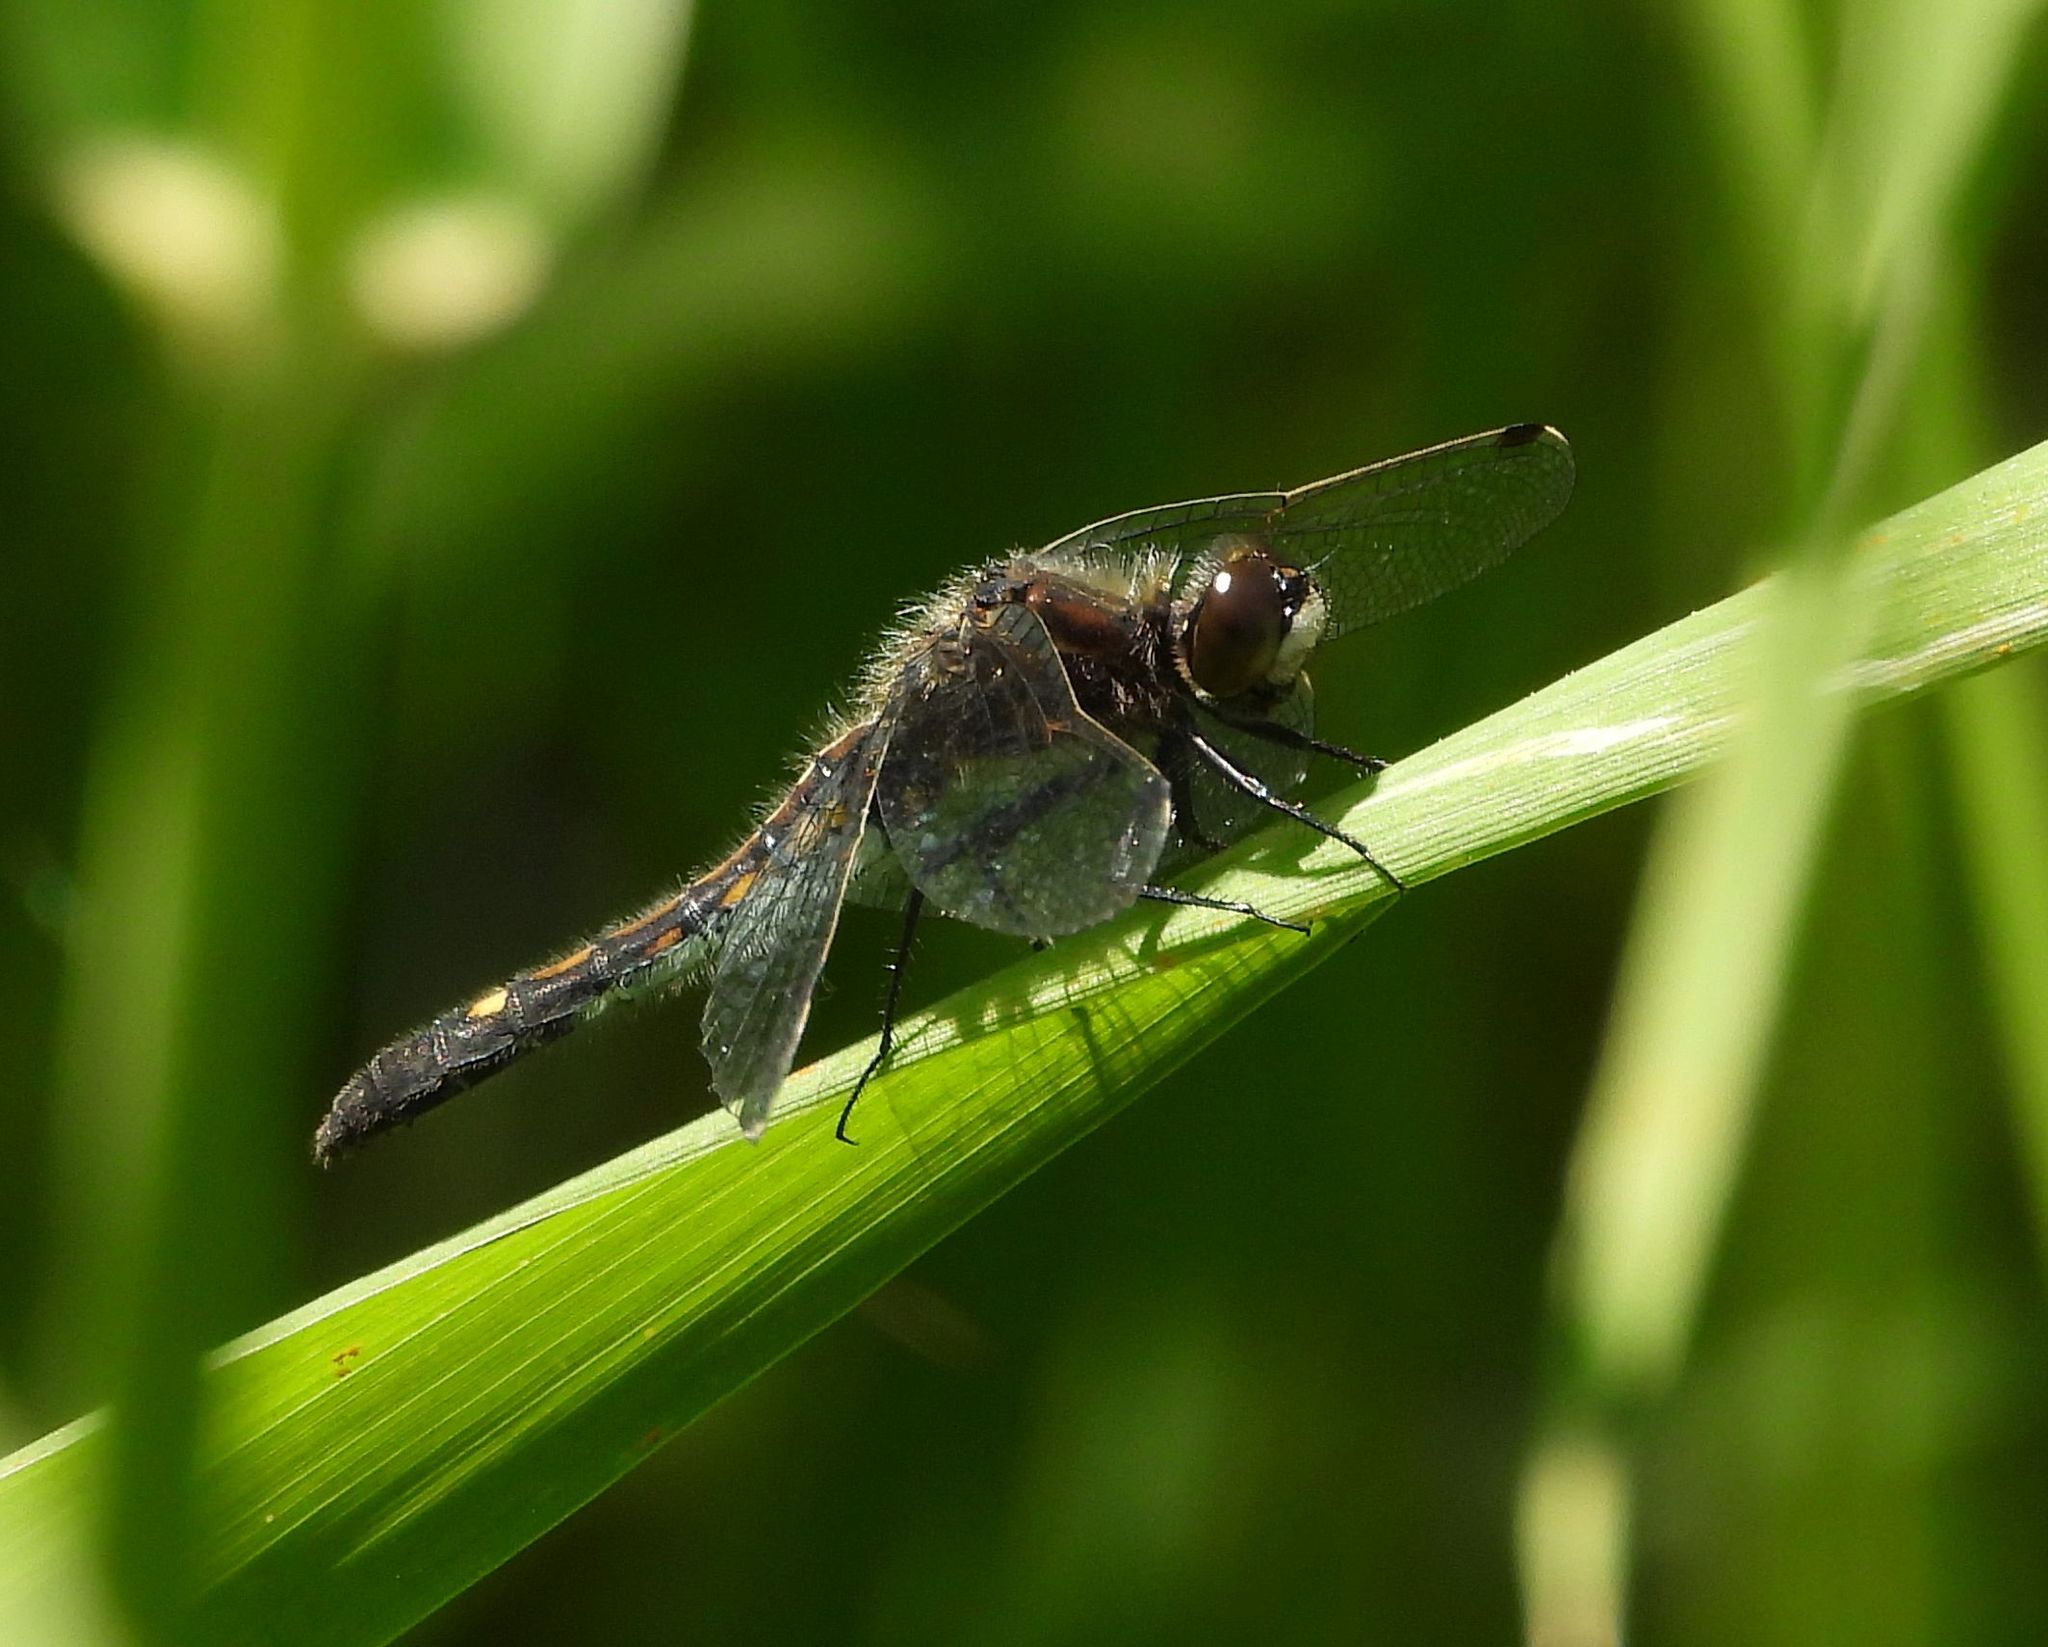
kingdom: Animalia
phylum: Arthropoda
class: Insecta
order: Odonata
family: Libellulidae
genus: Leucorrhinia
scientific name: Leucorrhinia intacta
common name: Dot-tailed whiteface
